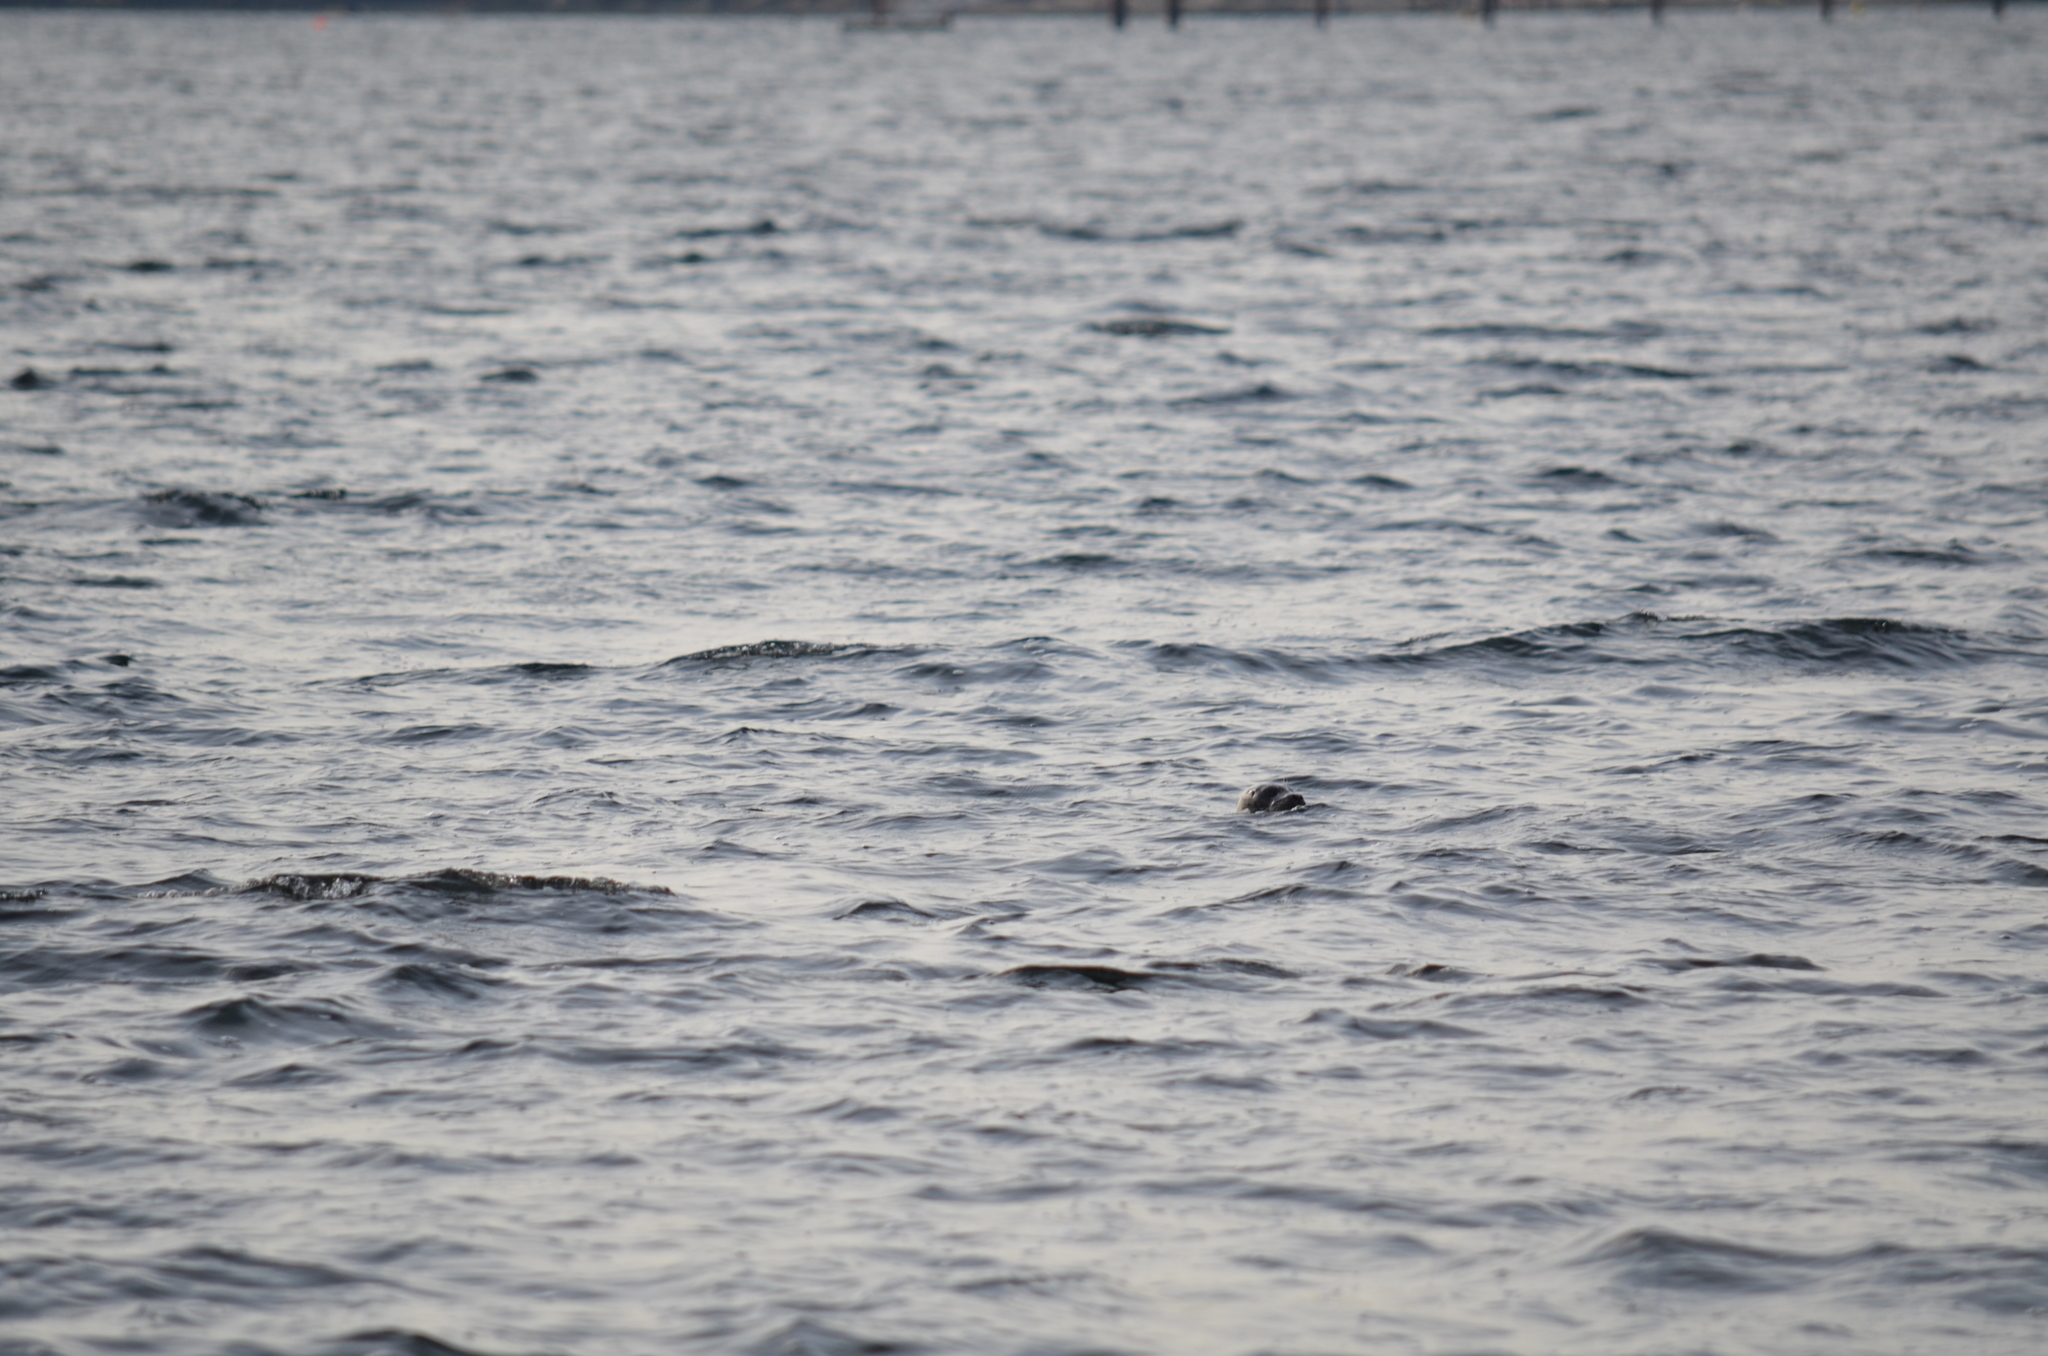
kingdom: Animalia
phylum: Chordata
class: Mammalia
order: Carnivora
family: Phocidae
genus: Phoca
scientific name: Phoca vitulina
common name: Harbor seal
